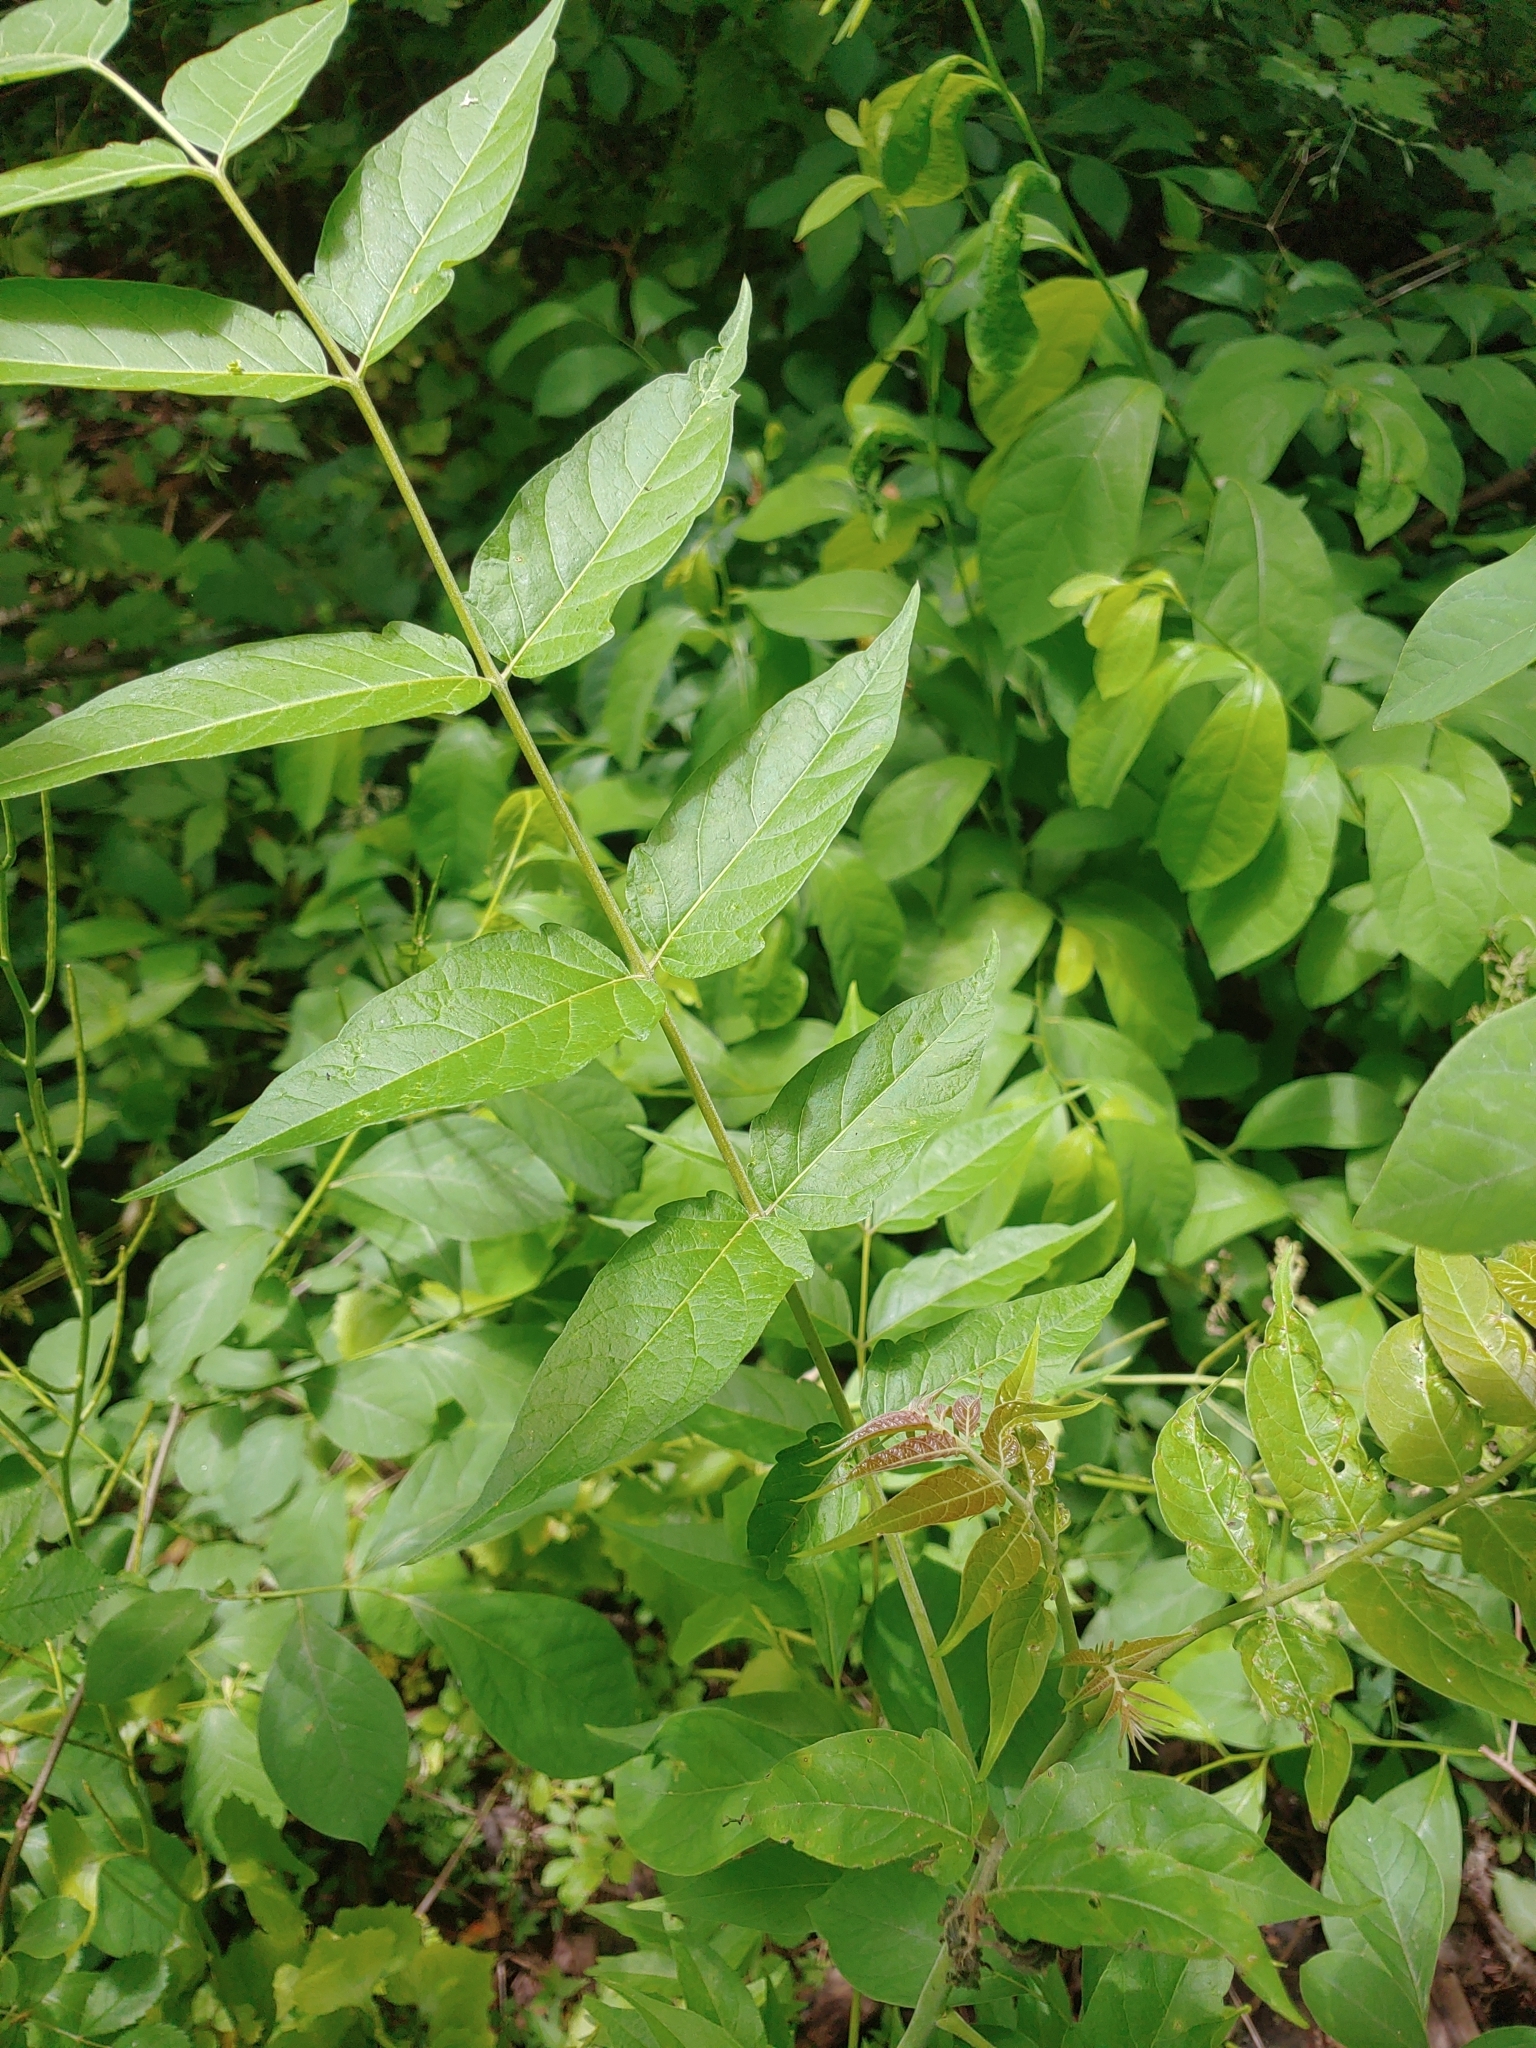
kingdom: Plantae
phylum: Tracheophyta
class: Magnoliopsida
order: Sapindales
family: Simaroubaceae
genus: Ailanthus
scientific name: Ailanthus altissima
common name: Tree-of-heaven
